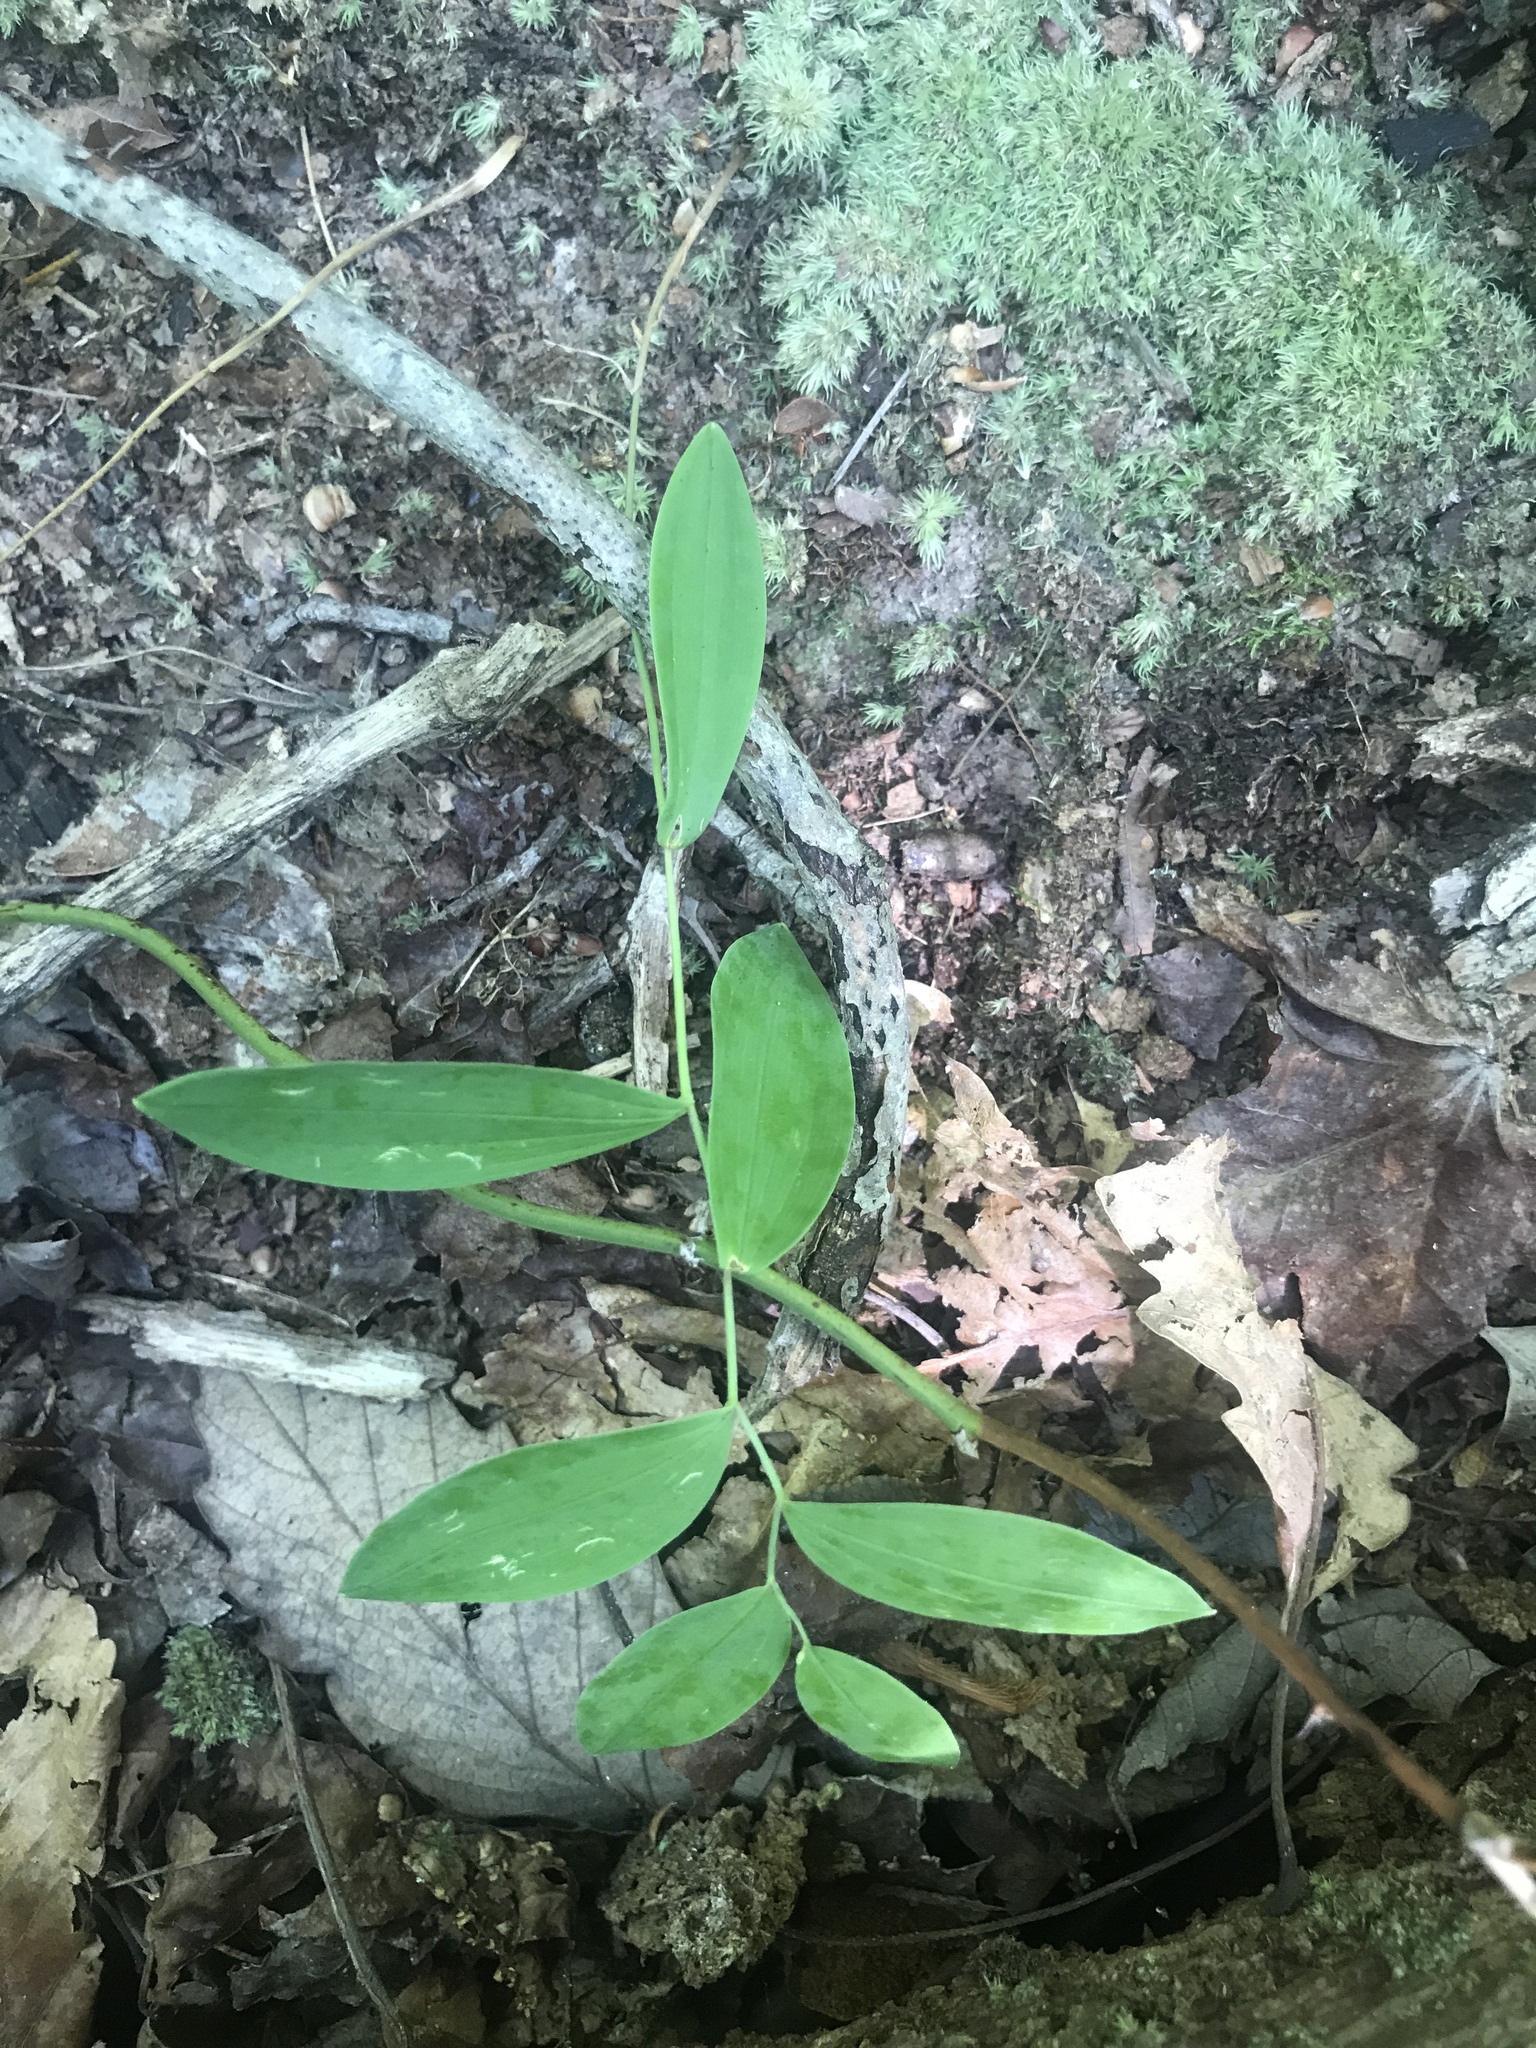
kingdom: Plantae
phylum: Tracheophyta
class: Liliopsida
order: Liliales
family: Colchicaceae
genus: Uvularia
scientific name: Uvularia sessilifolia
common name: Straw-lily
